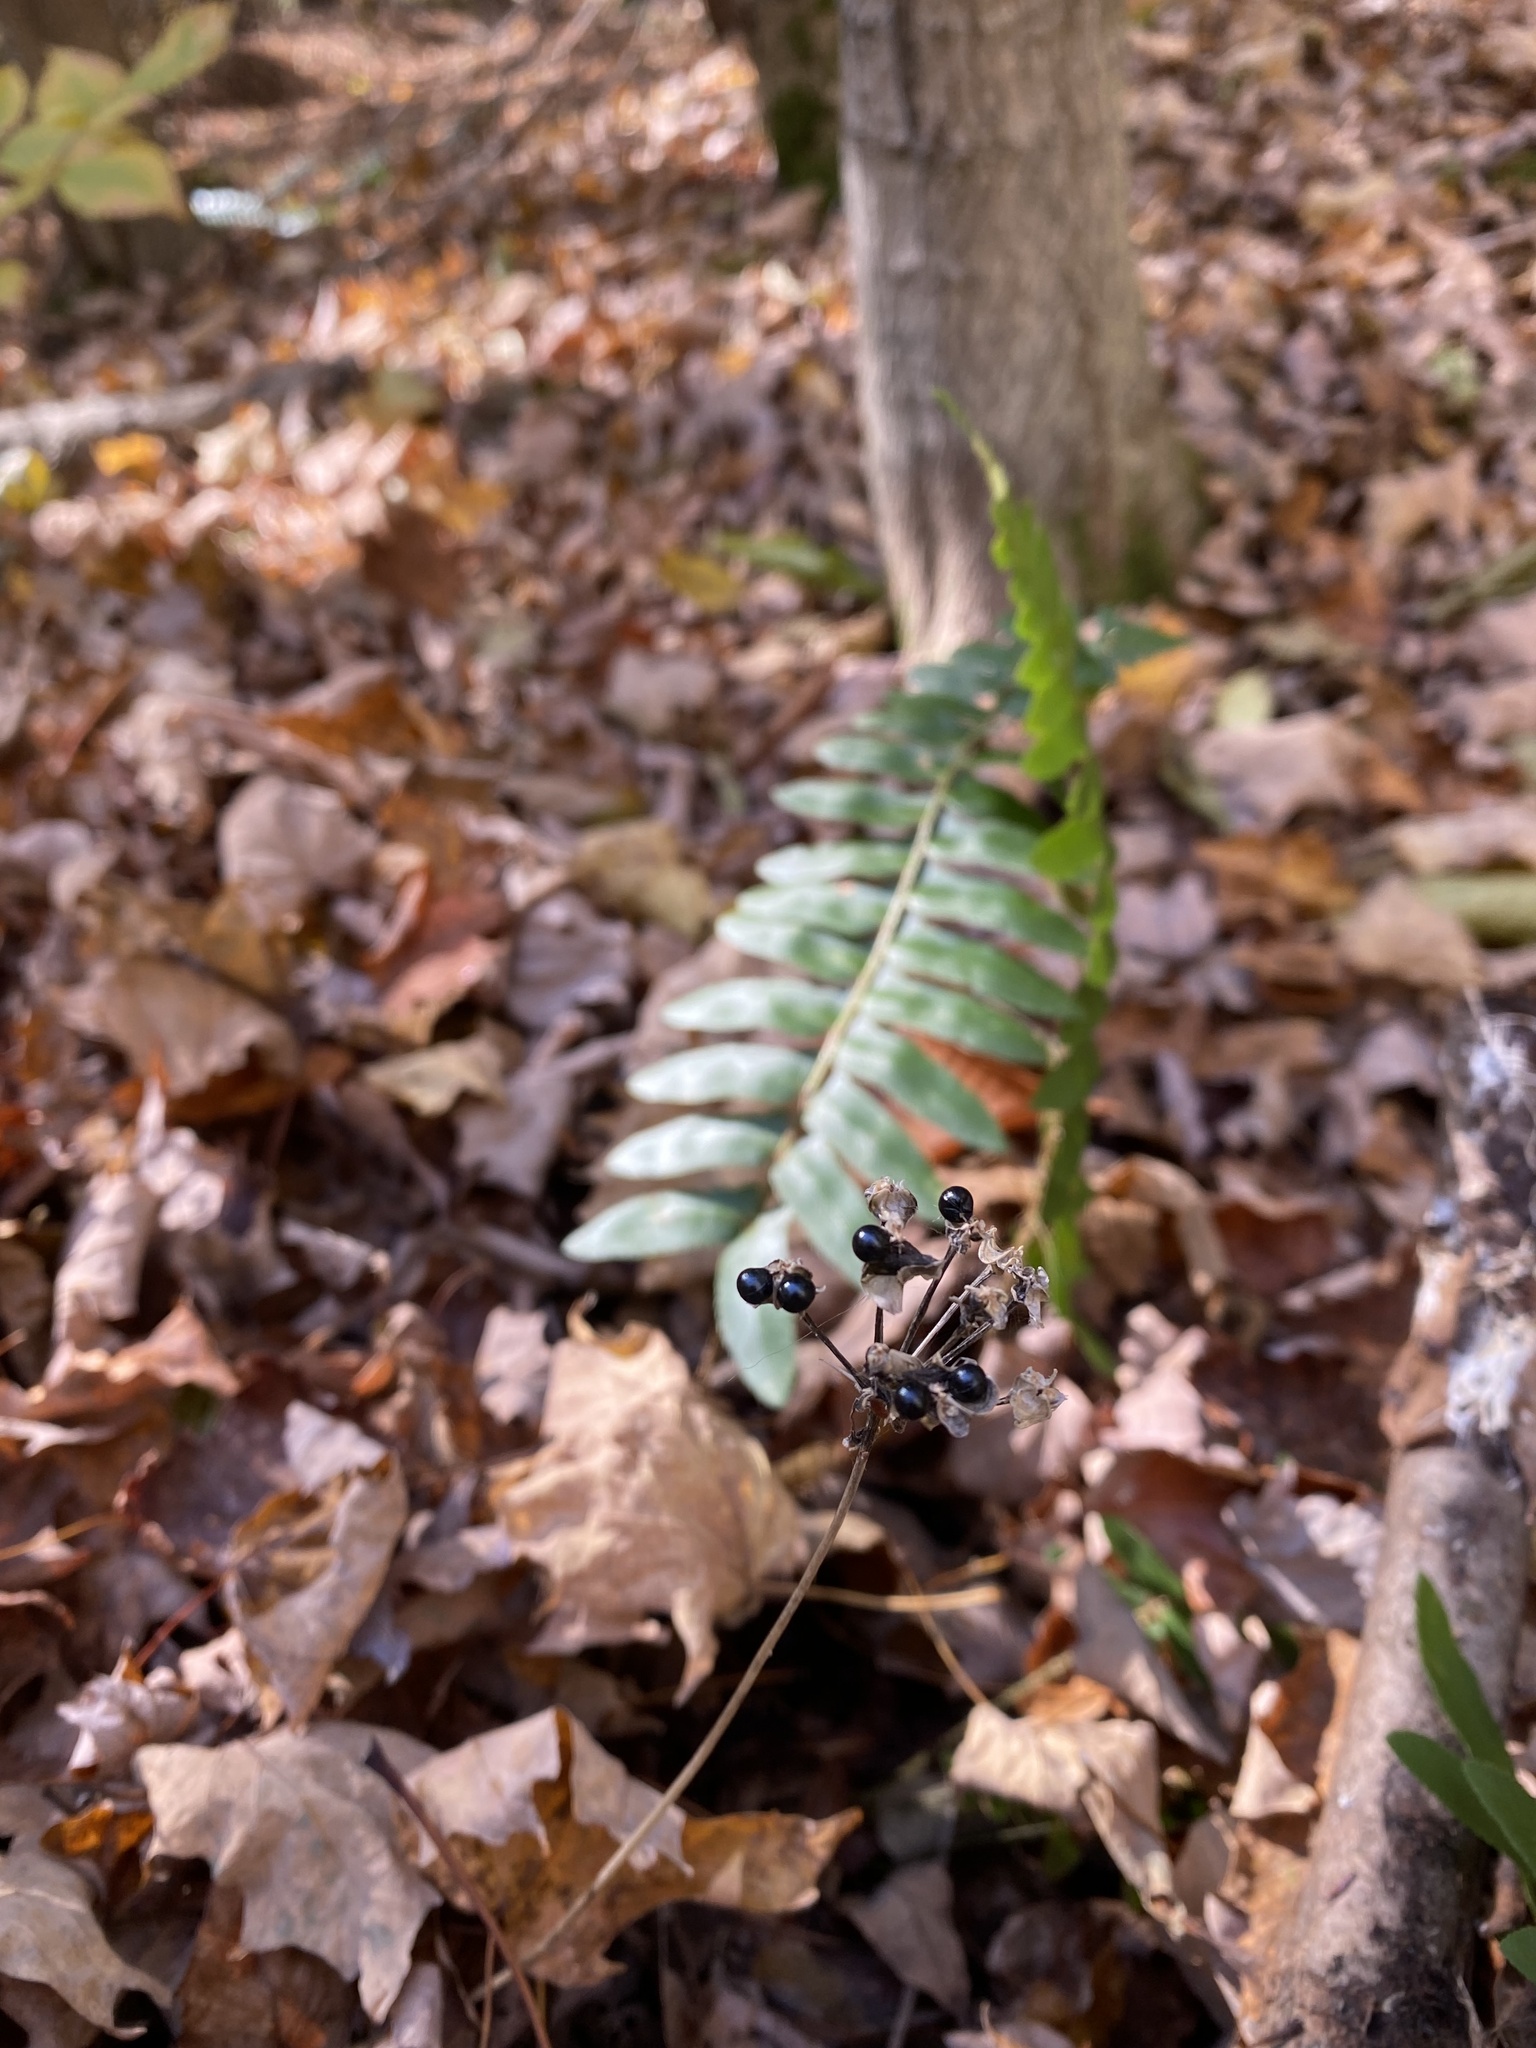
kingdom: Plantae
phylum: Tracheophyta
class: Liliopsida
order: Asparagales
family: Amaryllidaceae
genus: Allium
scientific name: Allium tricoccum
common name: Ramp
